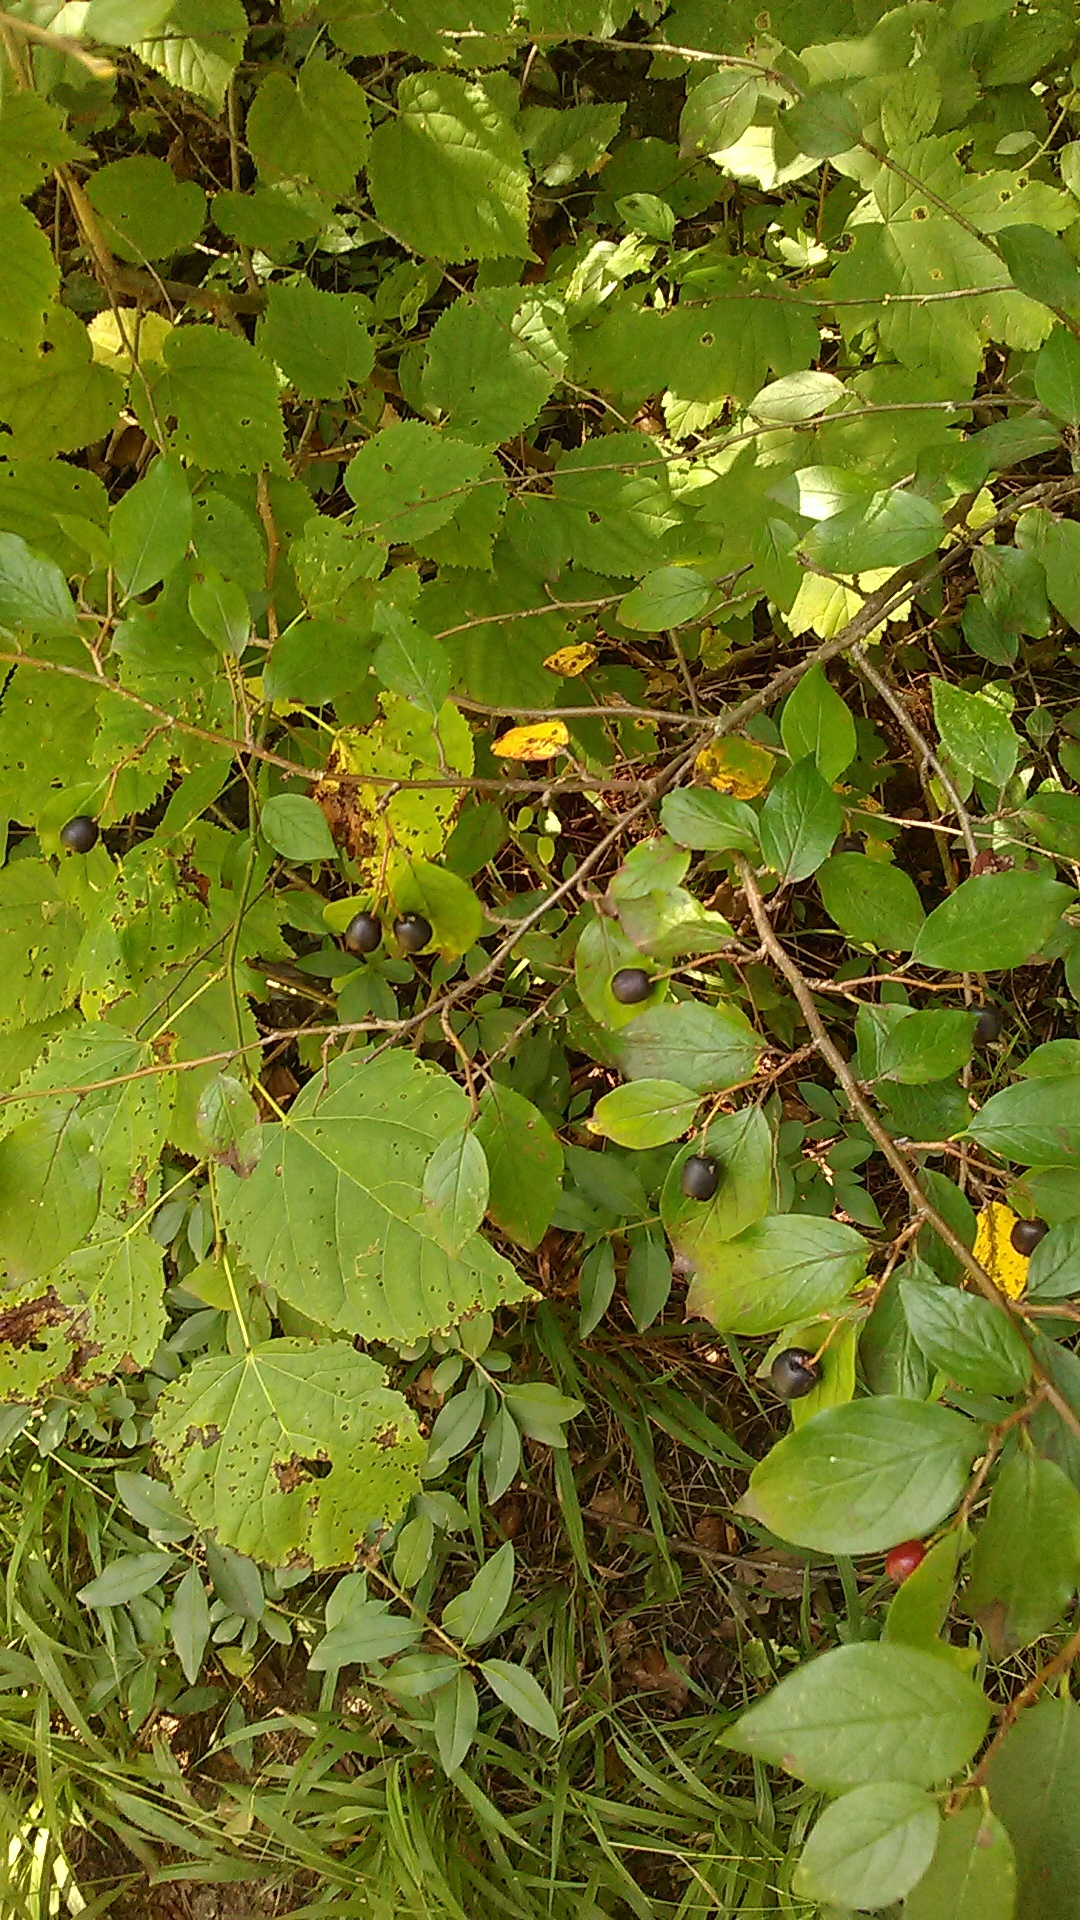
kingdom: Plantae
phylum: Tracheophyta
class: Magnoliopsida
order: Rosales
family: Rosaceae
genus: Cotoneaster
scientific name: Cotoneaster acutifolius
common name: Peking cotoneaster
